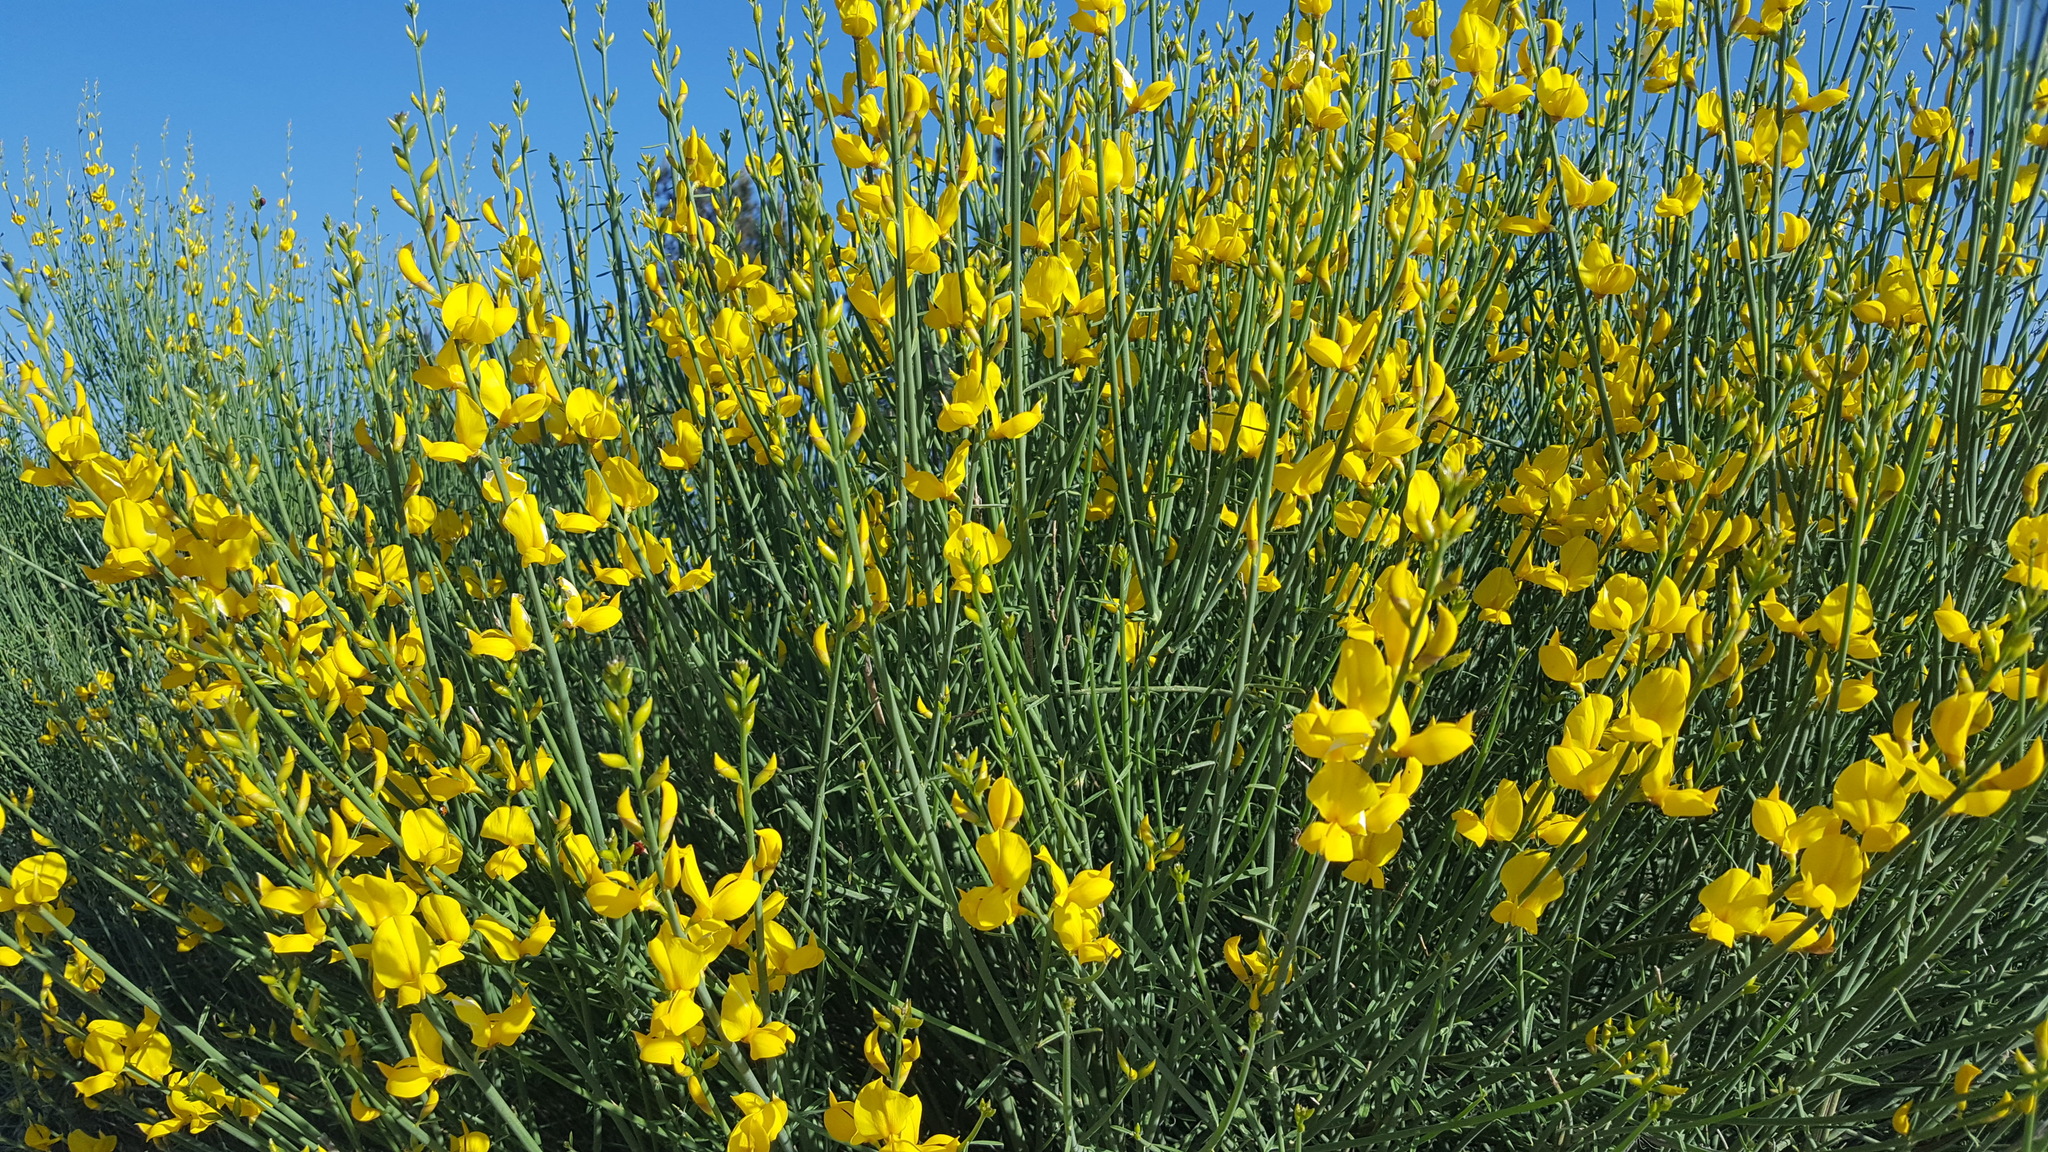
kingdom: Plantae
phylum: Tracheophyta
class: Magnoliopsida
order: Fabales
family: Fabaceae
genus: Spartium
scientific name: Spartium junceum
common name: Spanish broom
